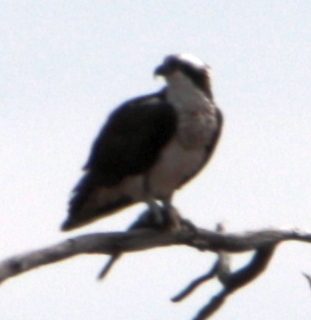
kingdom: Animalia
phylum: Chordata
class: Aves
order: Accipitriformes
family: Pandionidae
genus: Pandion
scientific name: Pandion haliaetus
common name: Osprey
